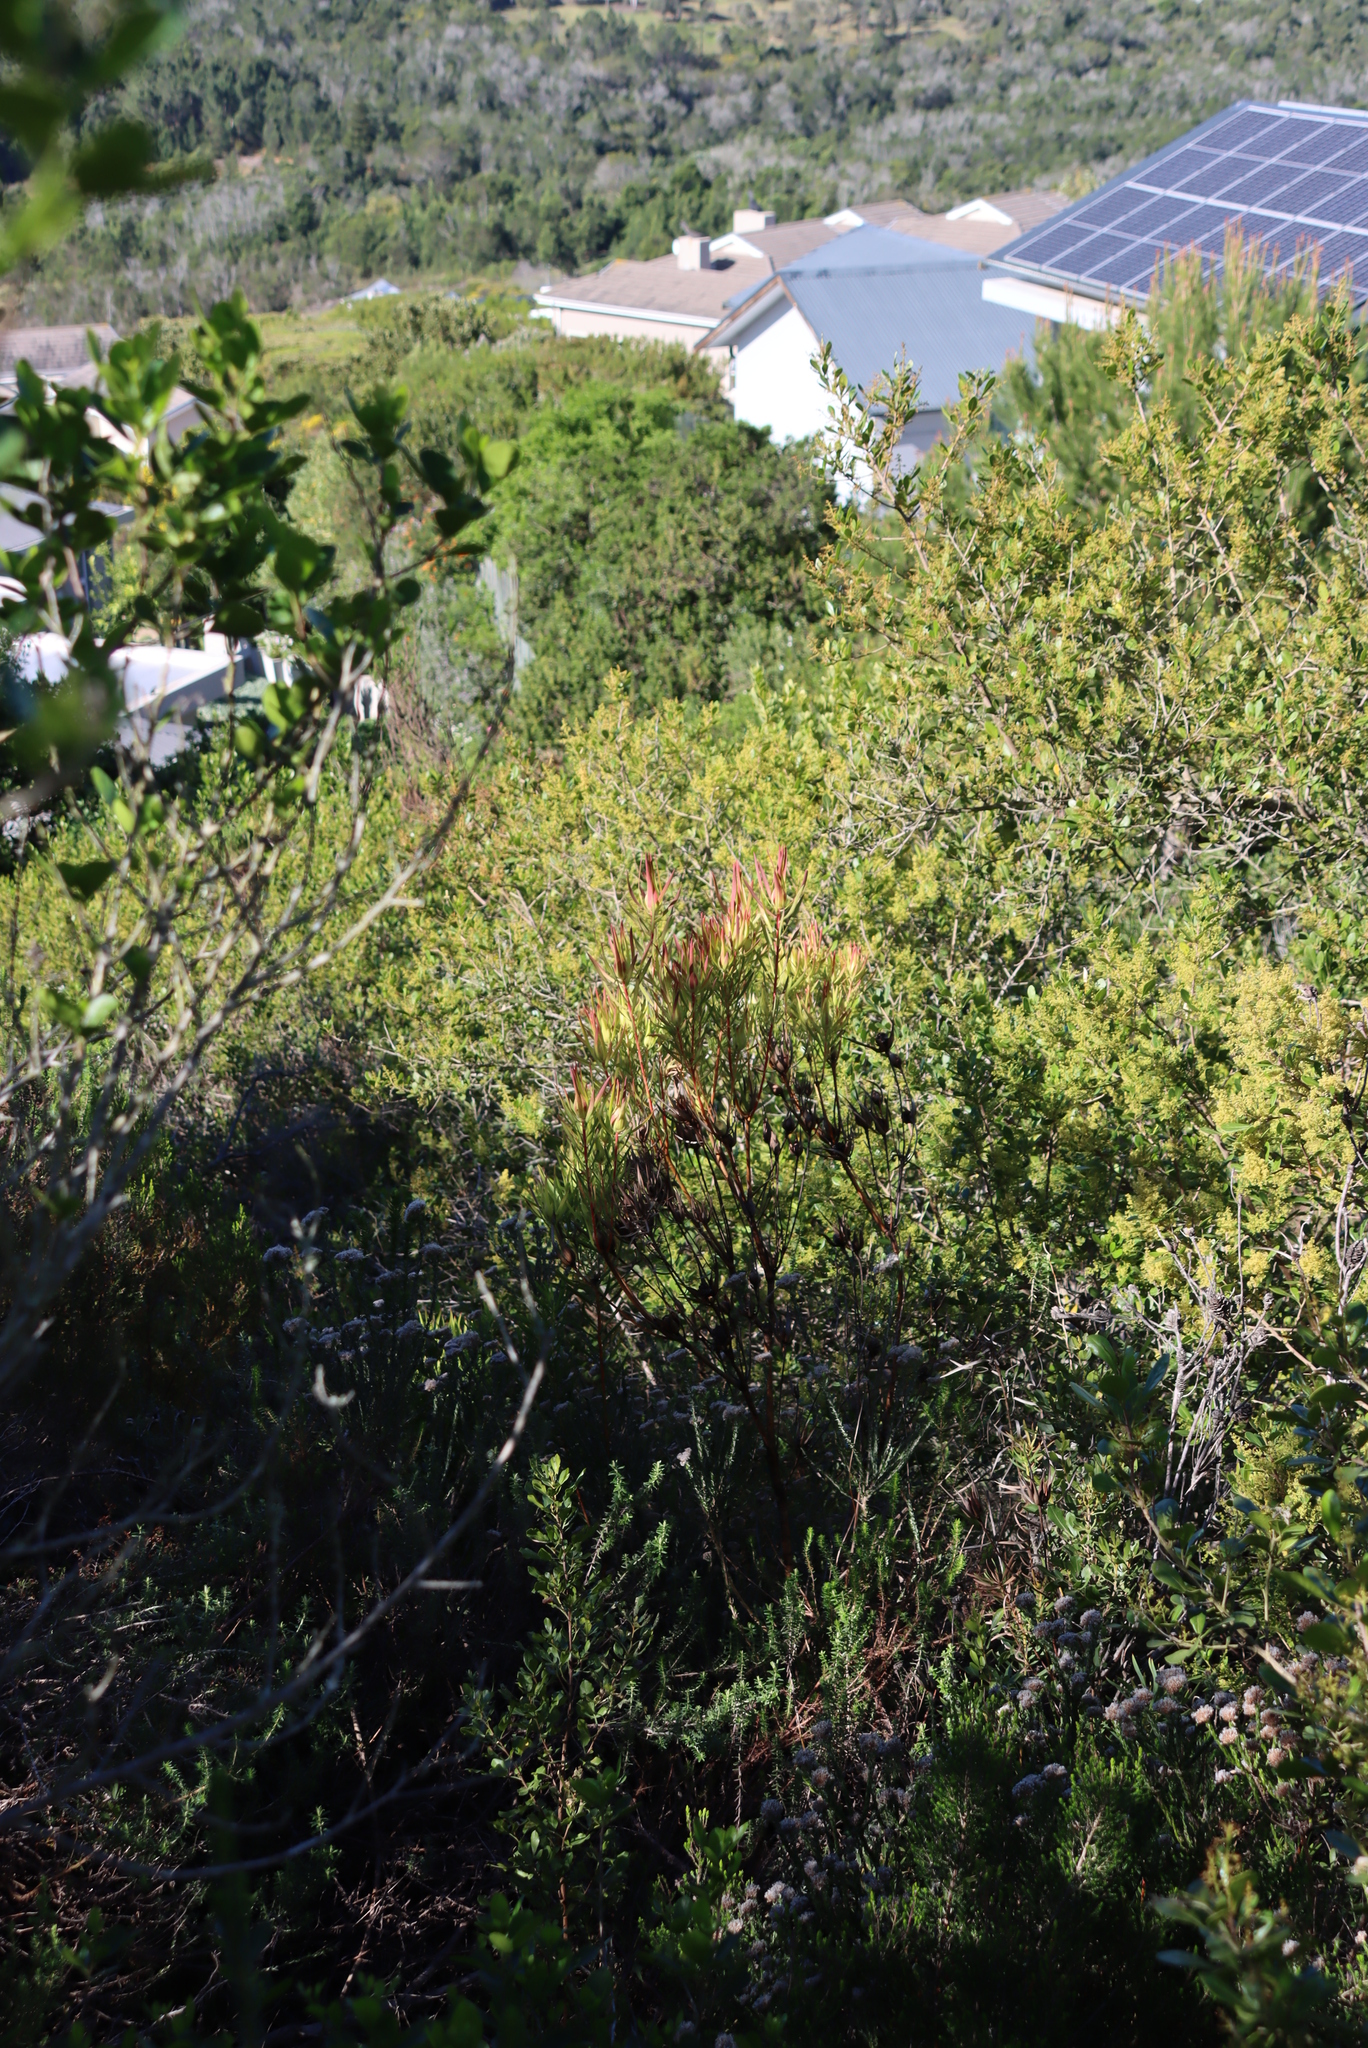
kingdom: Plantae
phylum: Tracheophyta
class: Magnoliopsida
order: Proteales
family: Proteaceae
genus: Leucadendron
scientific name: Leucadendron salignum
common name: Common sunshine conebush
